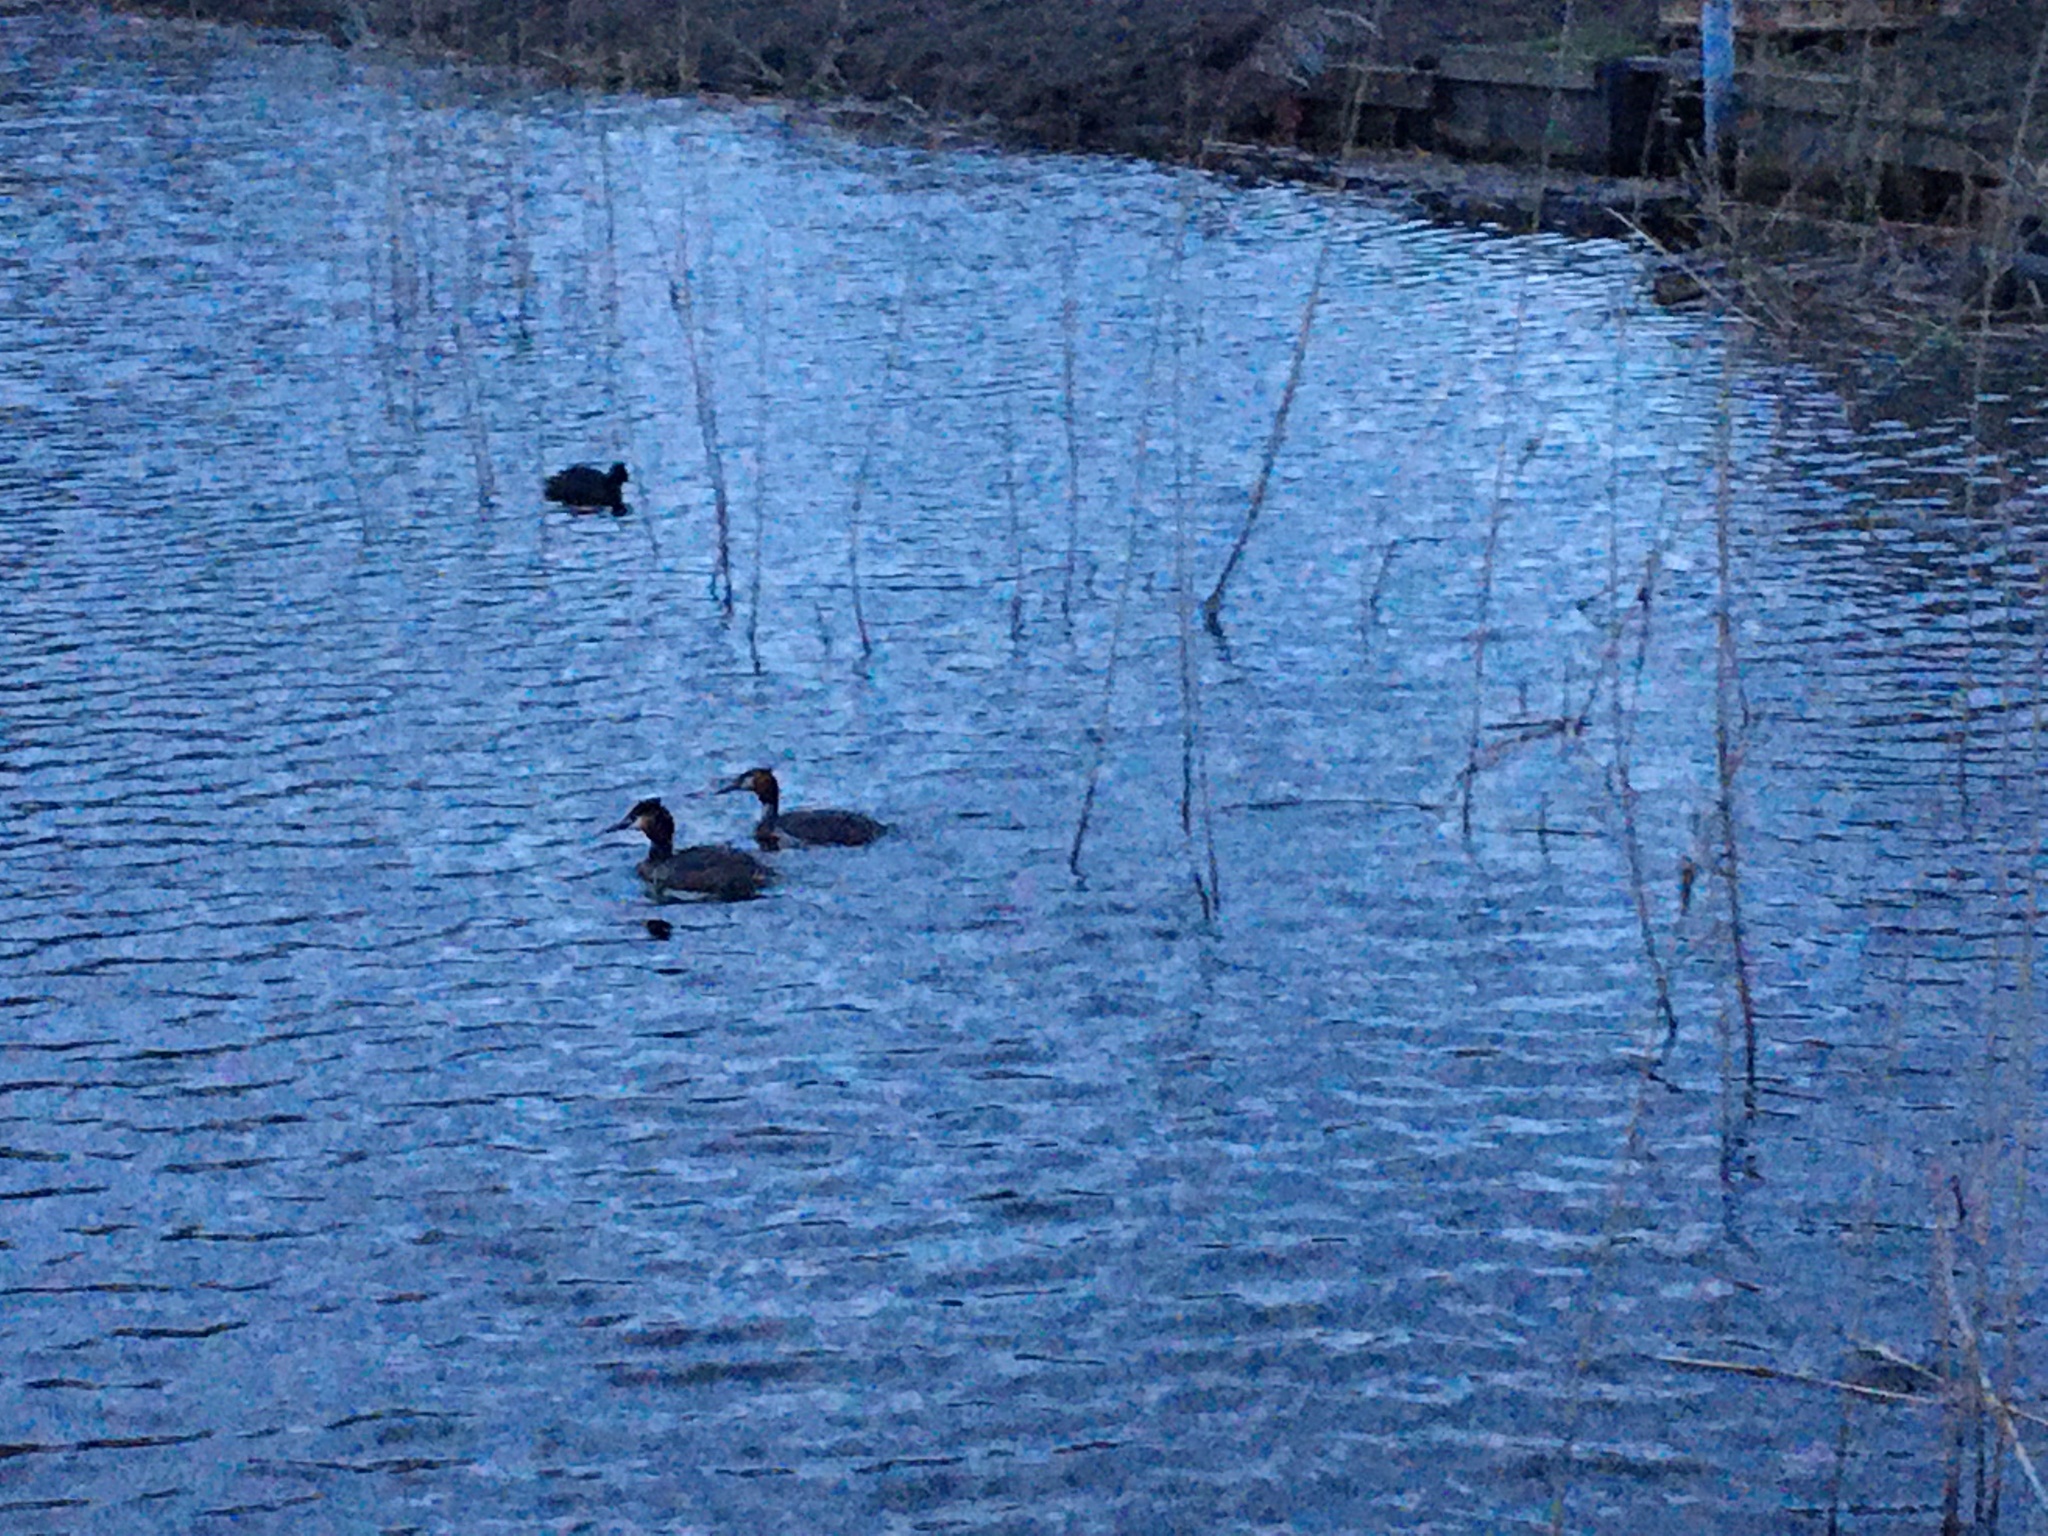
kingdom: Animalia
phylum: Chordata
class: Aves
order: Podicipediformes
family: Podicipedidae
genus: Podiceps
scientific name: Podiceps cristatus
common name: Great crested grebe
